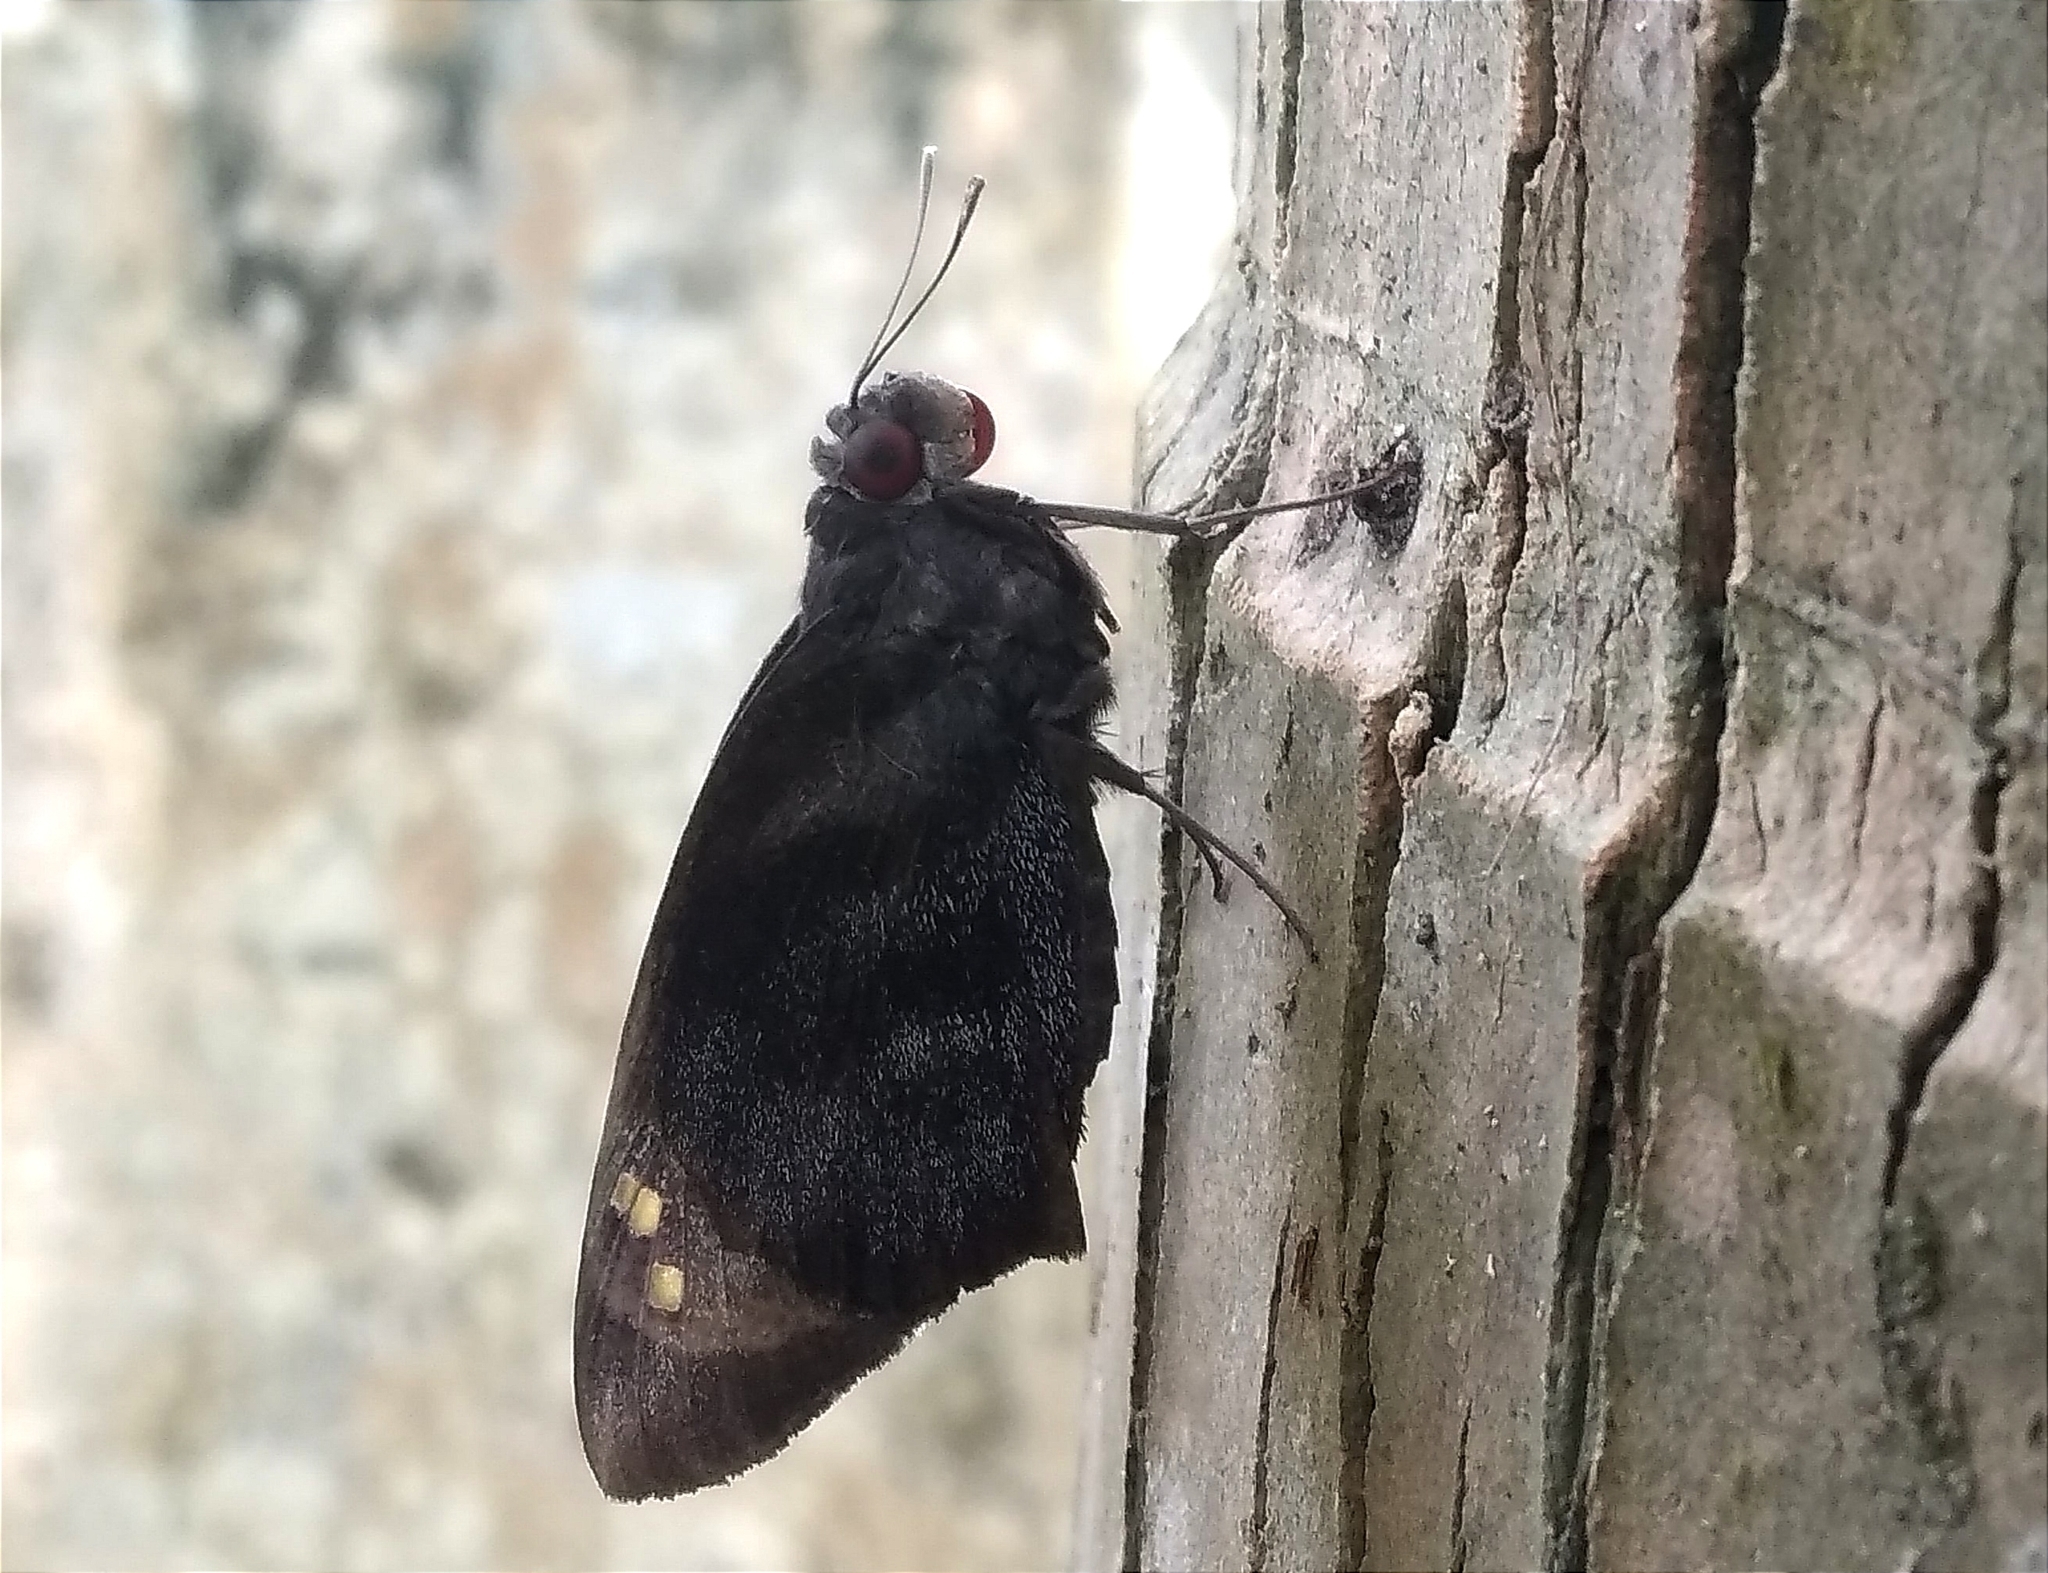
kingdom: Animalia
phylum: Arthropoda
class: Insecta
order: Lepidoptera
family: Hesperiidae
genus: Gangara
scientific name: Gangara thyrsis
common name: Giant redeye
